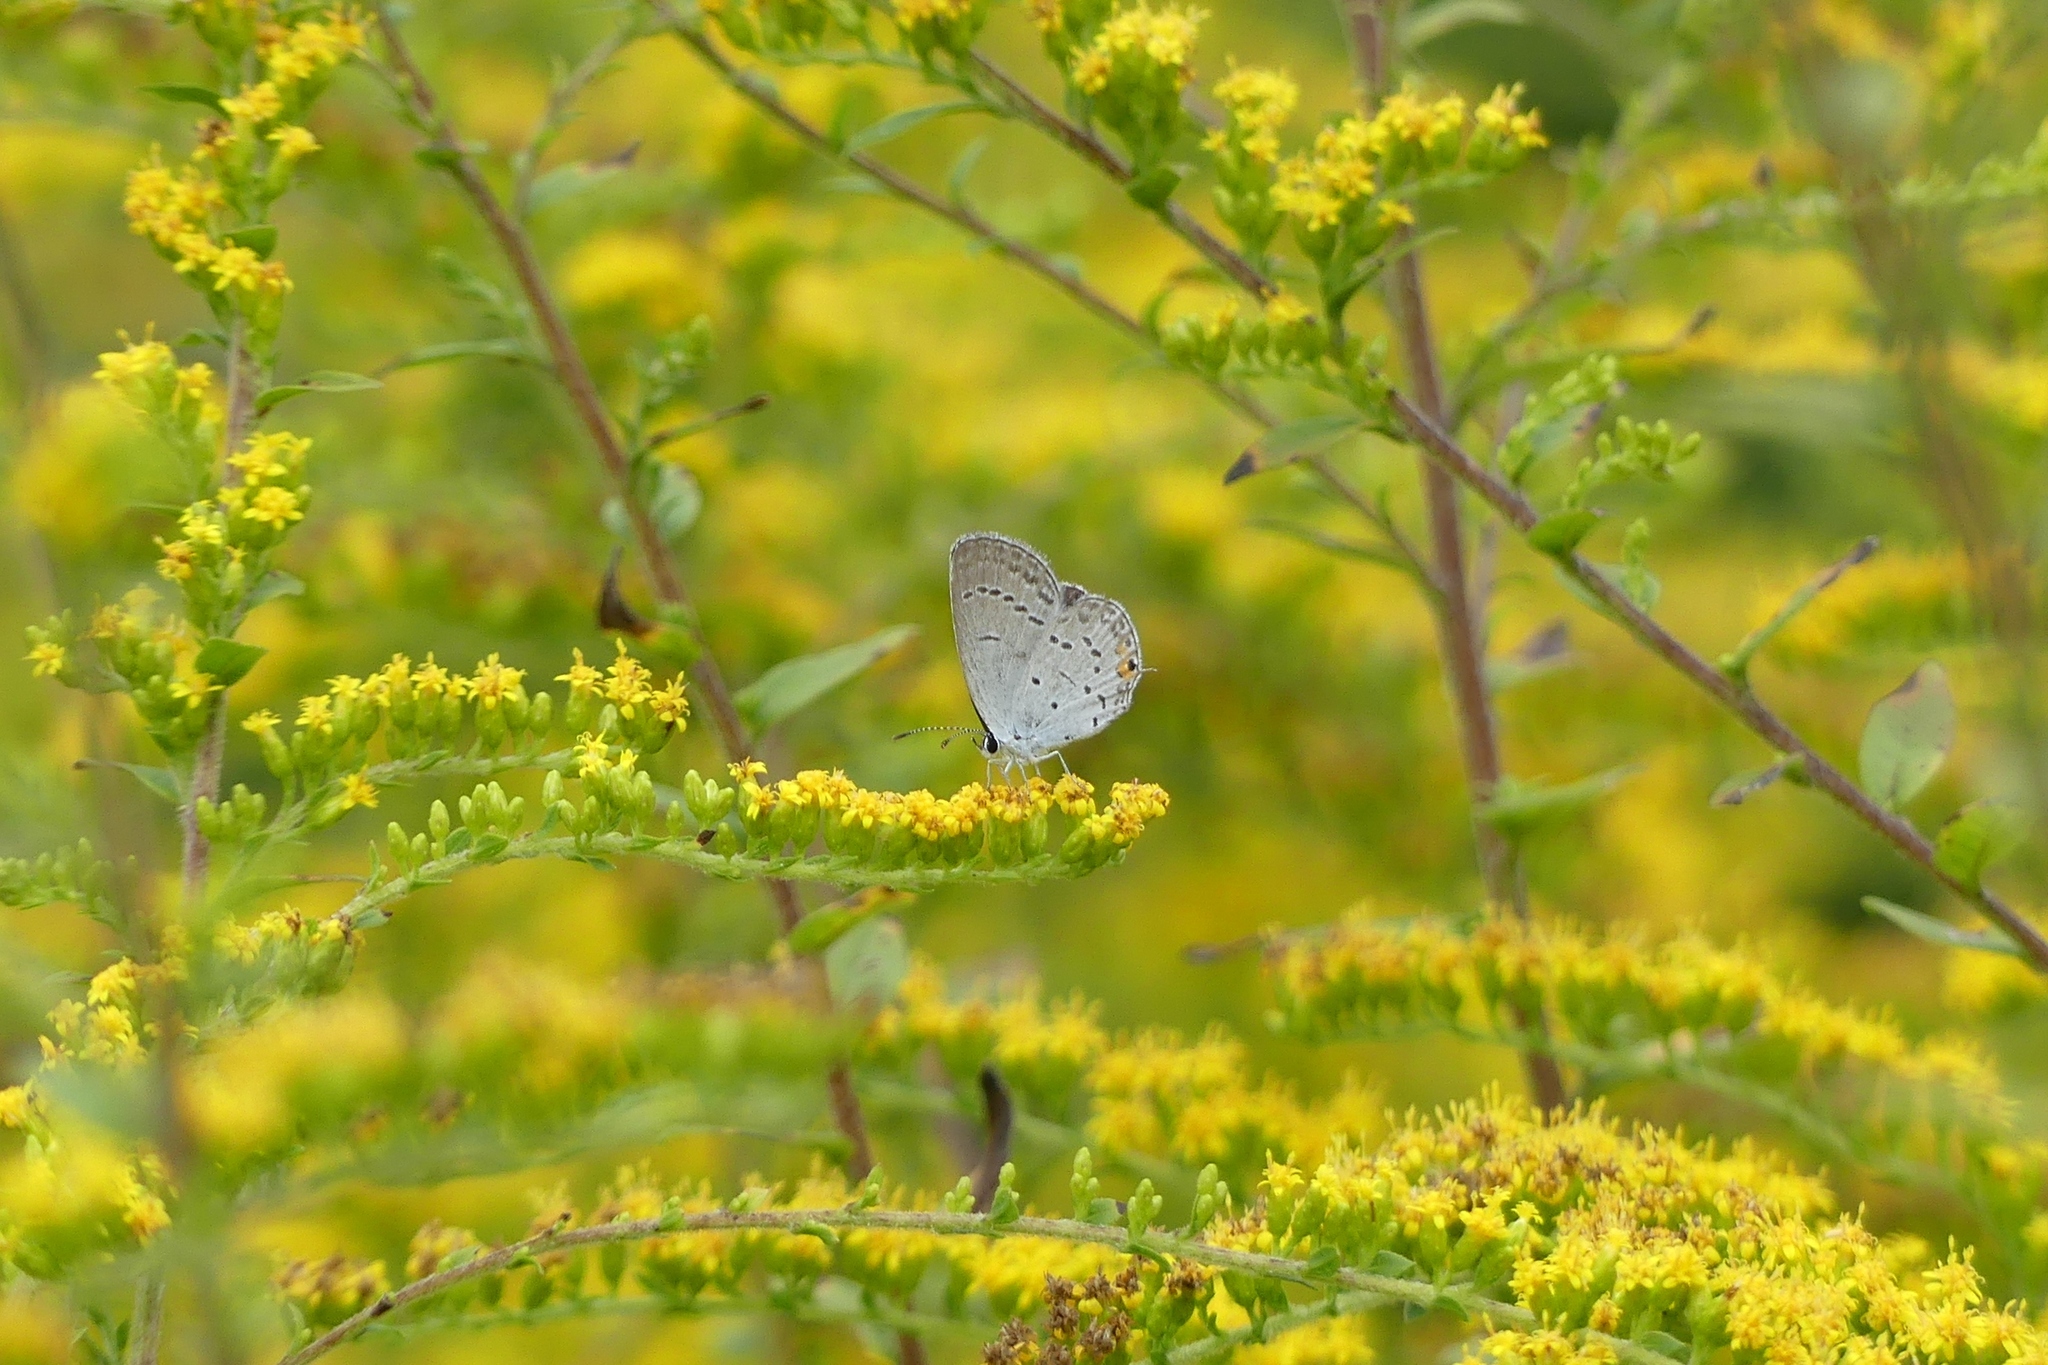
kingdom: Animalia
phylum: Arthropoda
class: Insecta
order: Lepidoptera
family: Lycaenidae
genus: Elkalyce
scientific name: Elkalyce comyntas
